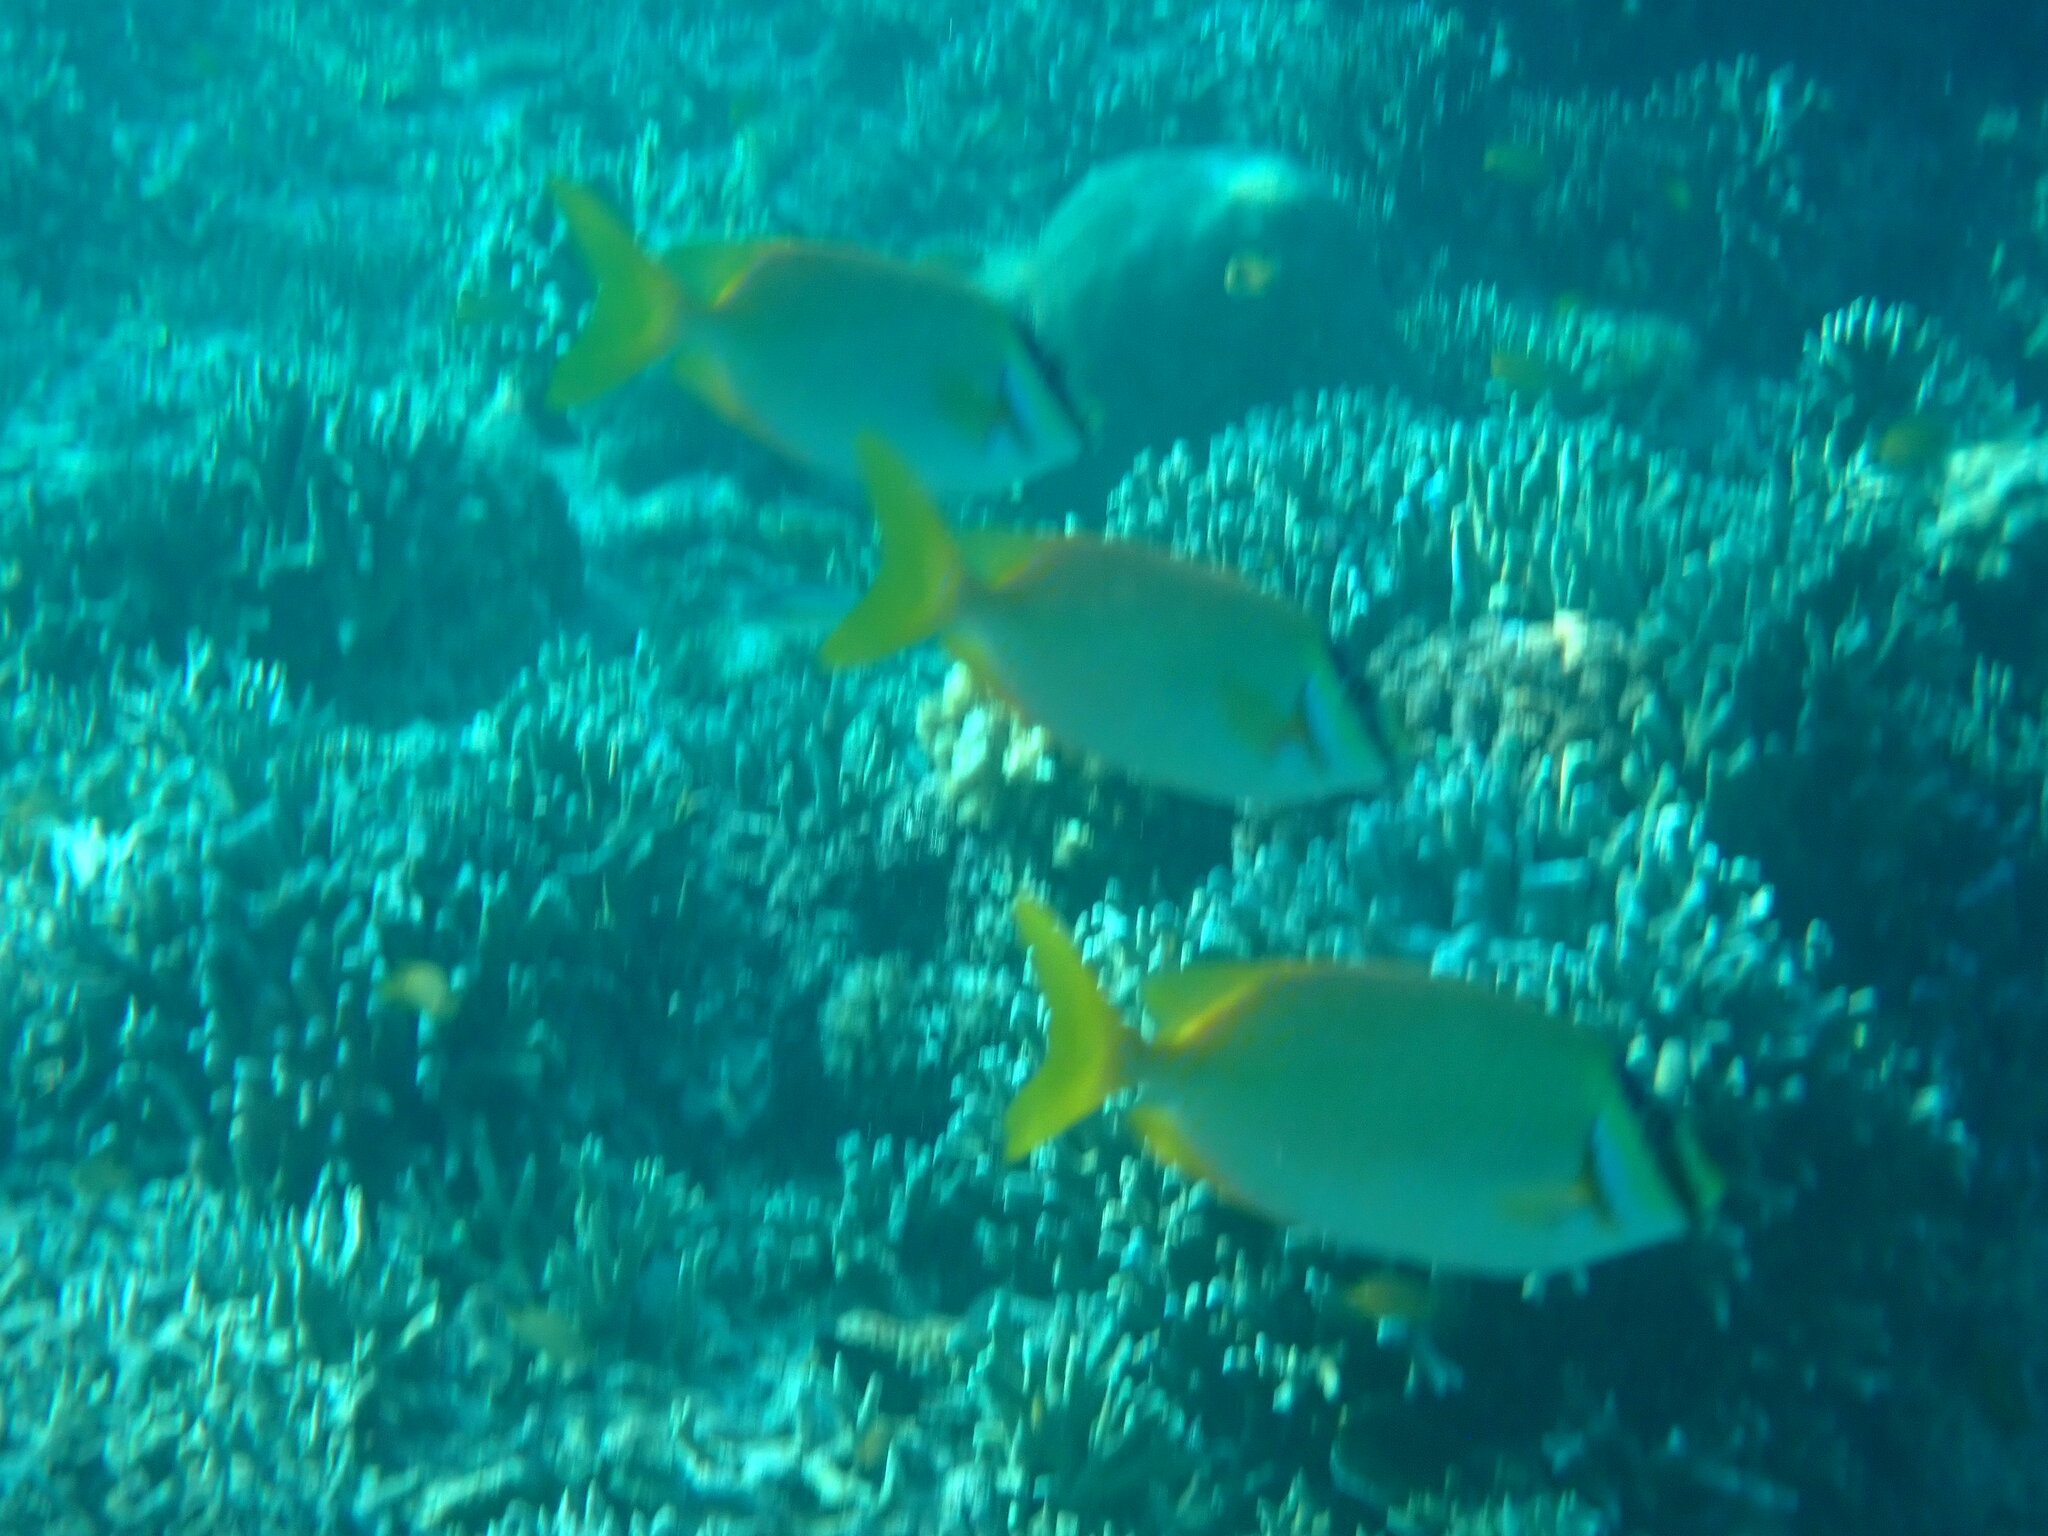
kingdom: Animalia
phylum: Chordata
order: Perciformes
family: Siganidae
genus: Siganus
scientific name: Siganus puellus
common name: Masked rabbitfish
